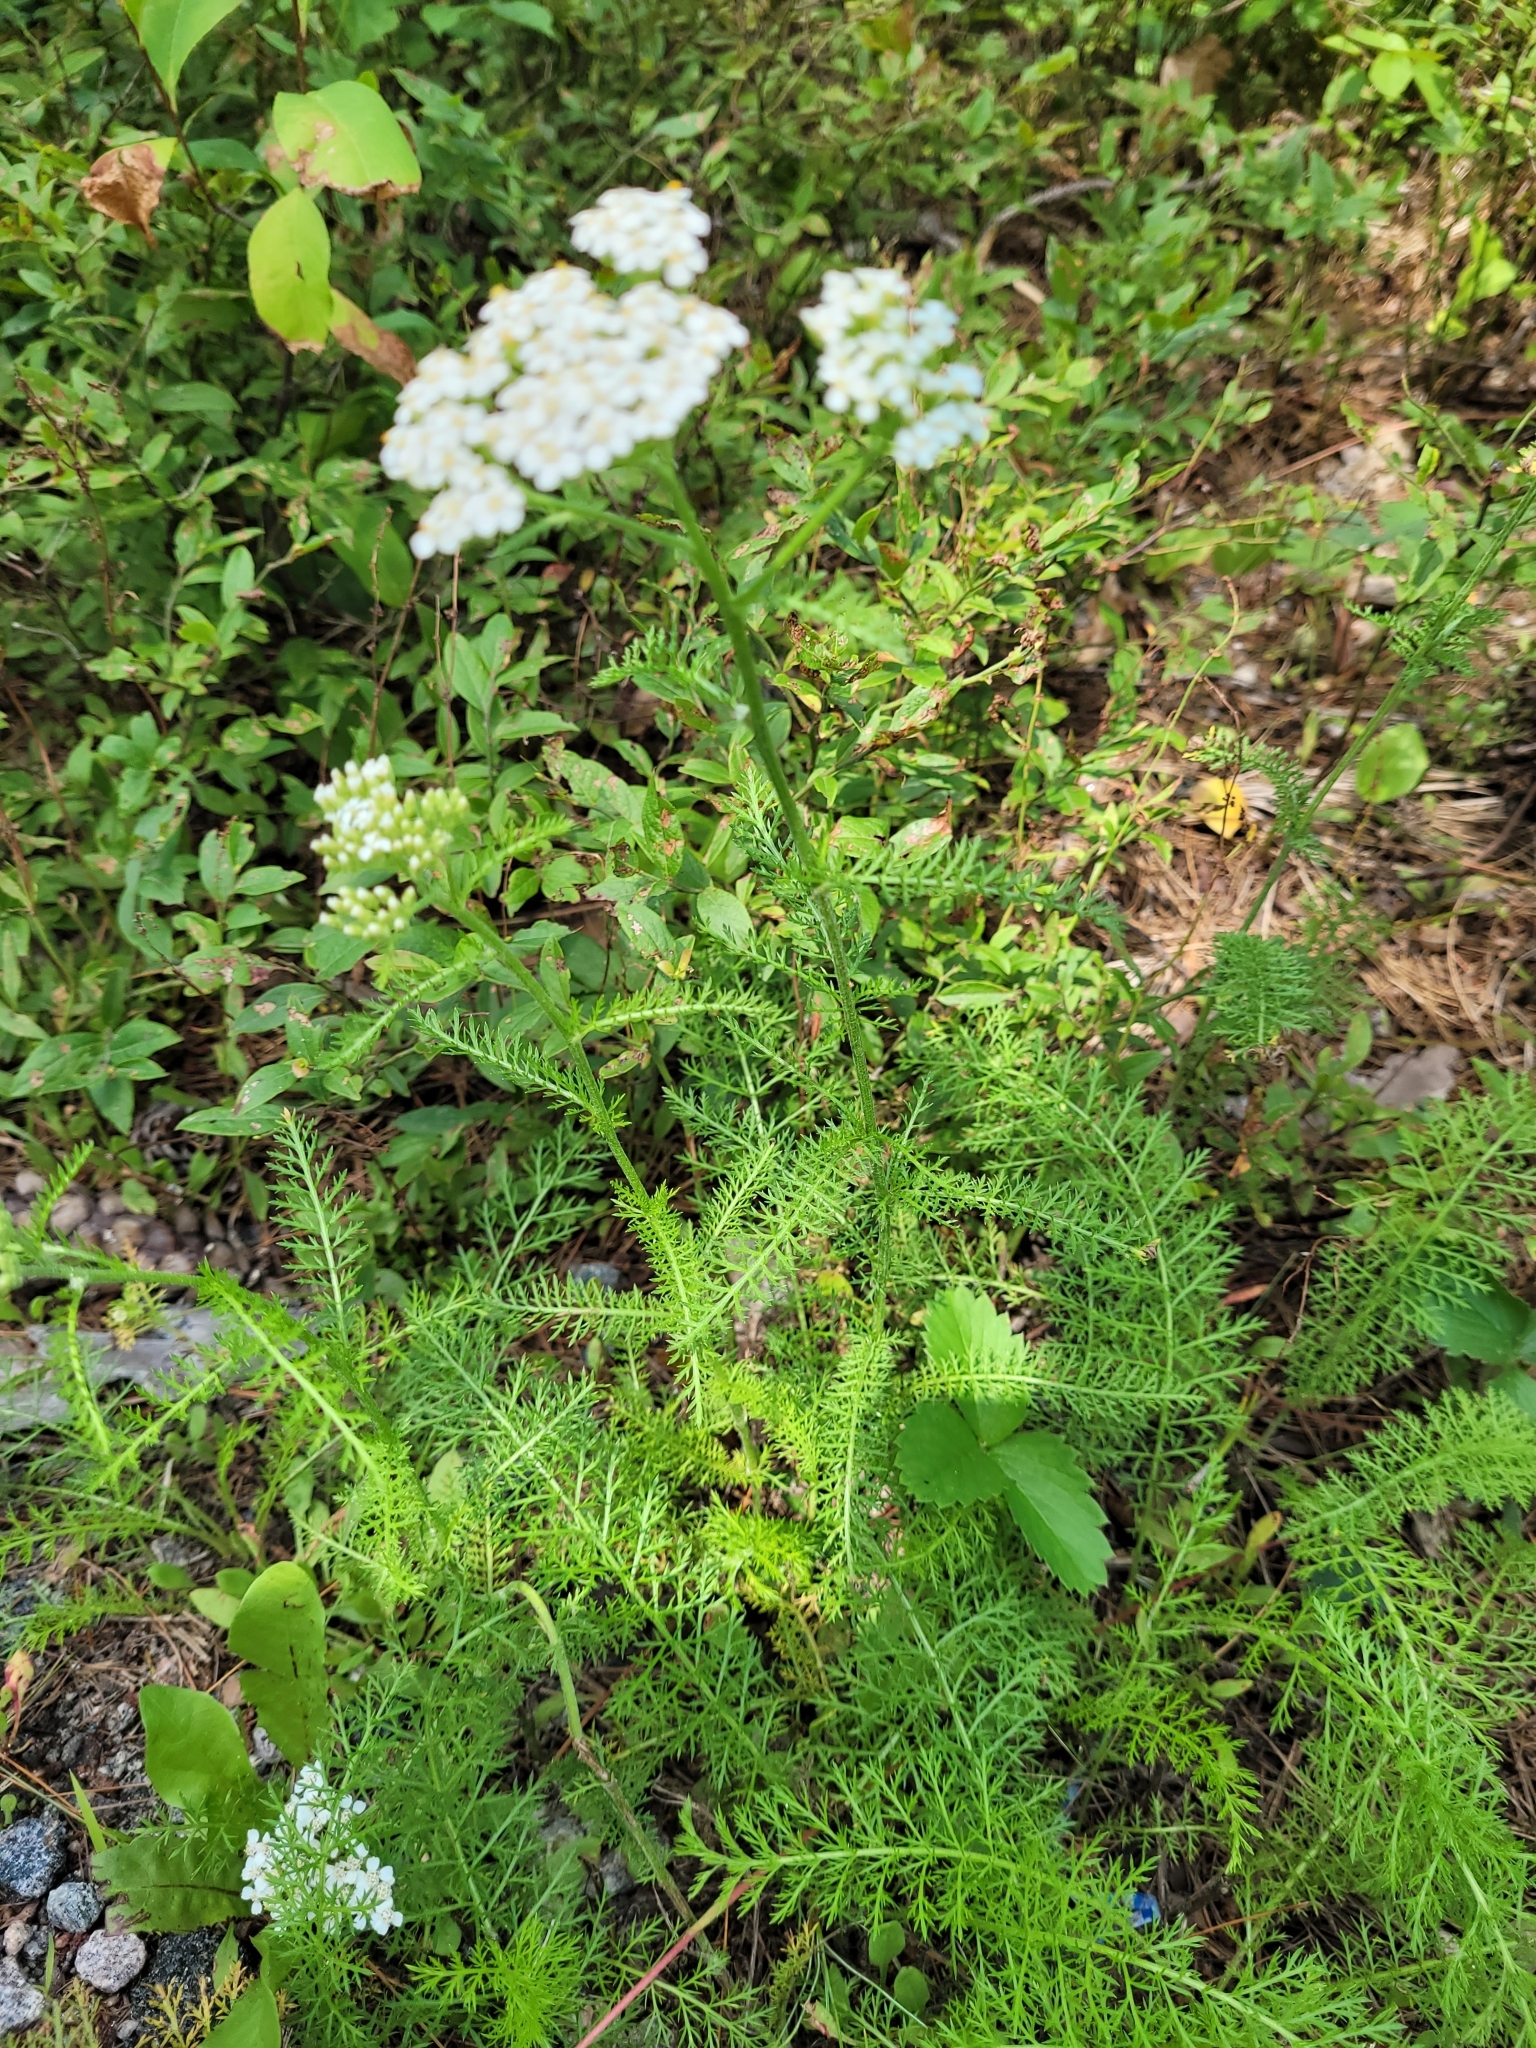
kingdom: Plantae
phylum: Tracheophyta
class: Magnoliopsida
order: Asterales
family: Asteraceae
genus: Achillea
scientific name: Achillea millefolium
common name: Yarrow
